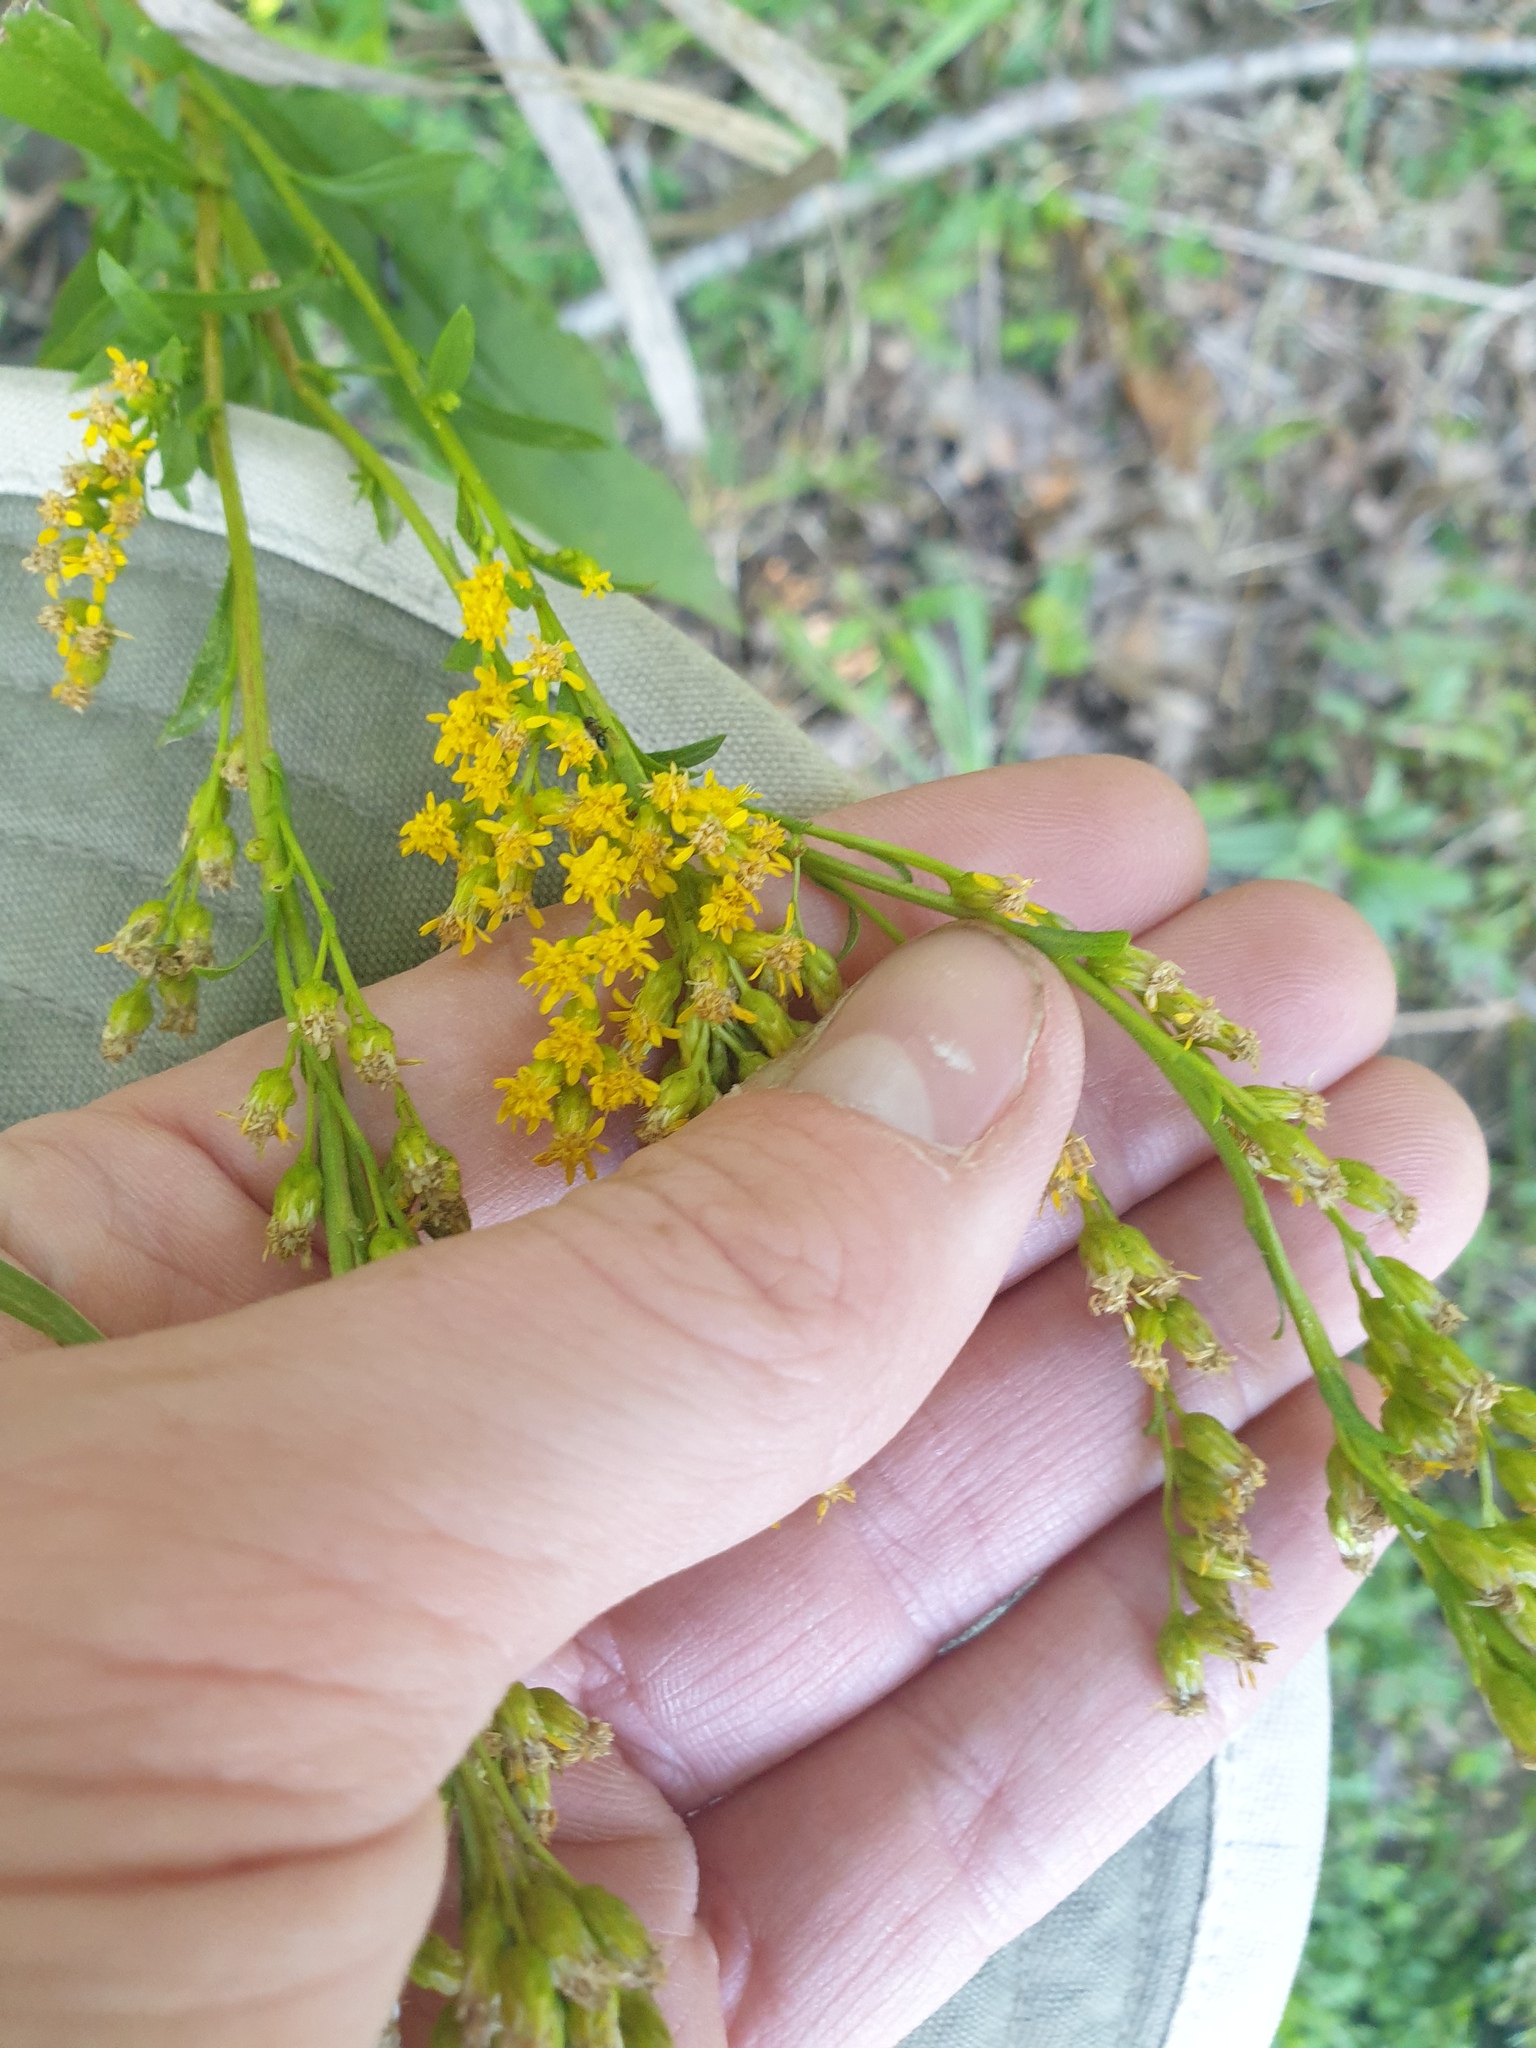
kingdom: Plantae
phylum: Tracheophyta
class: Magnoliopsida
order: Asterales
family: Asteraceae
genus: Solidago
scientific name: Solidago juncea
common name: Early goldenrod
